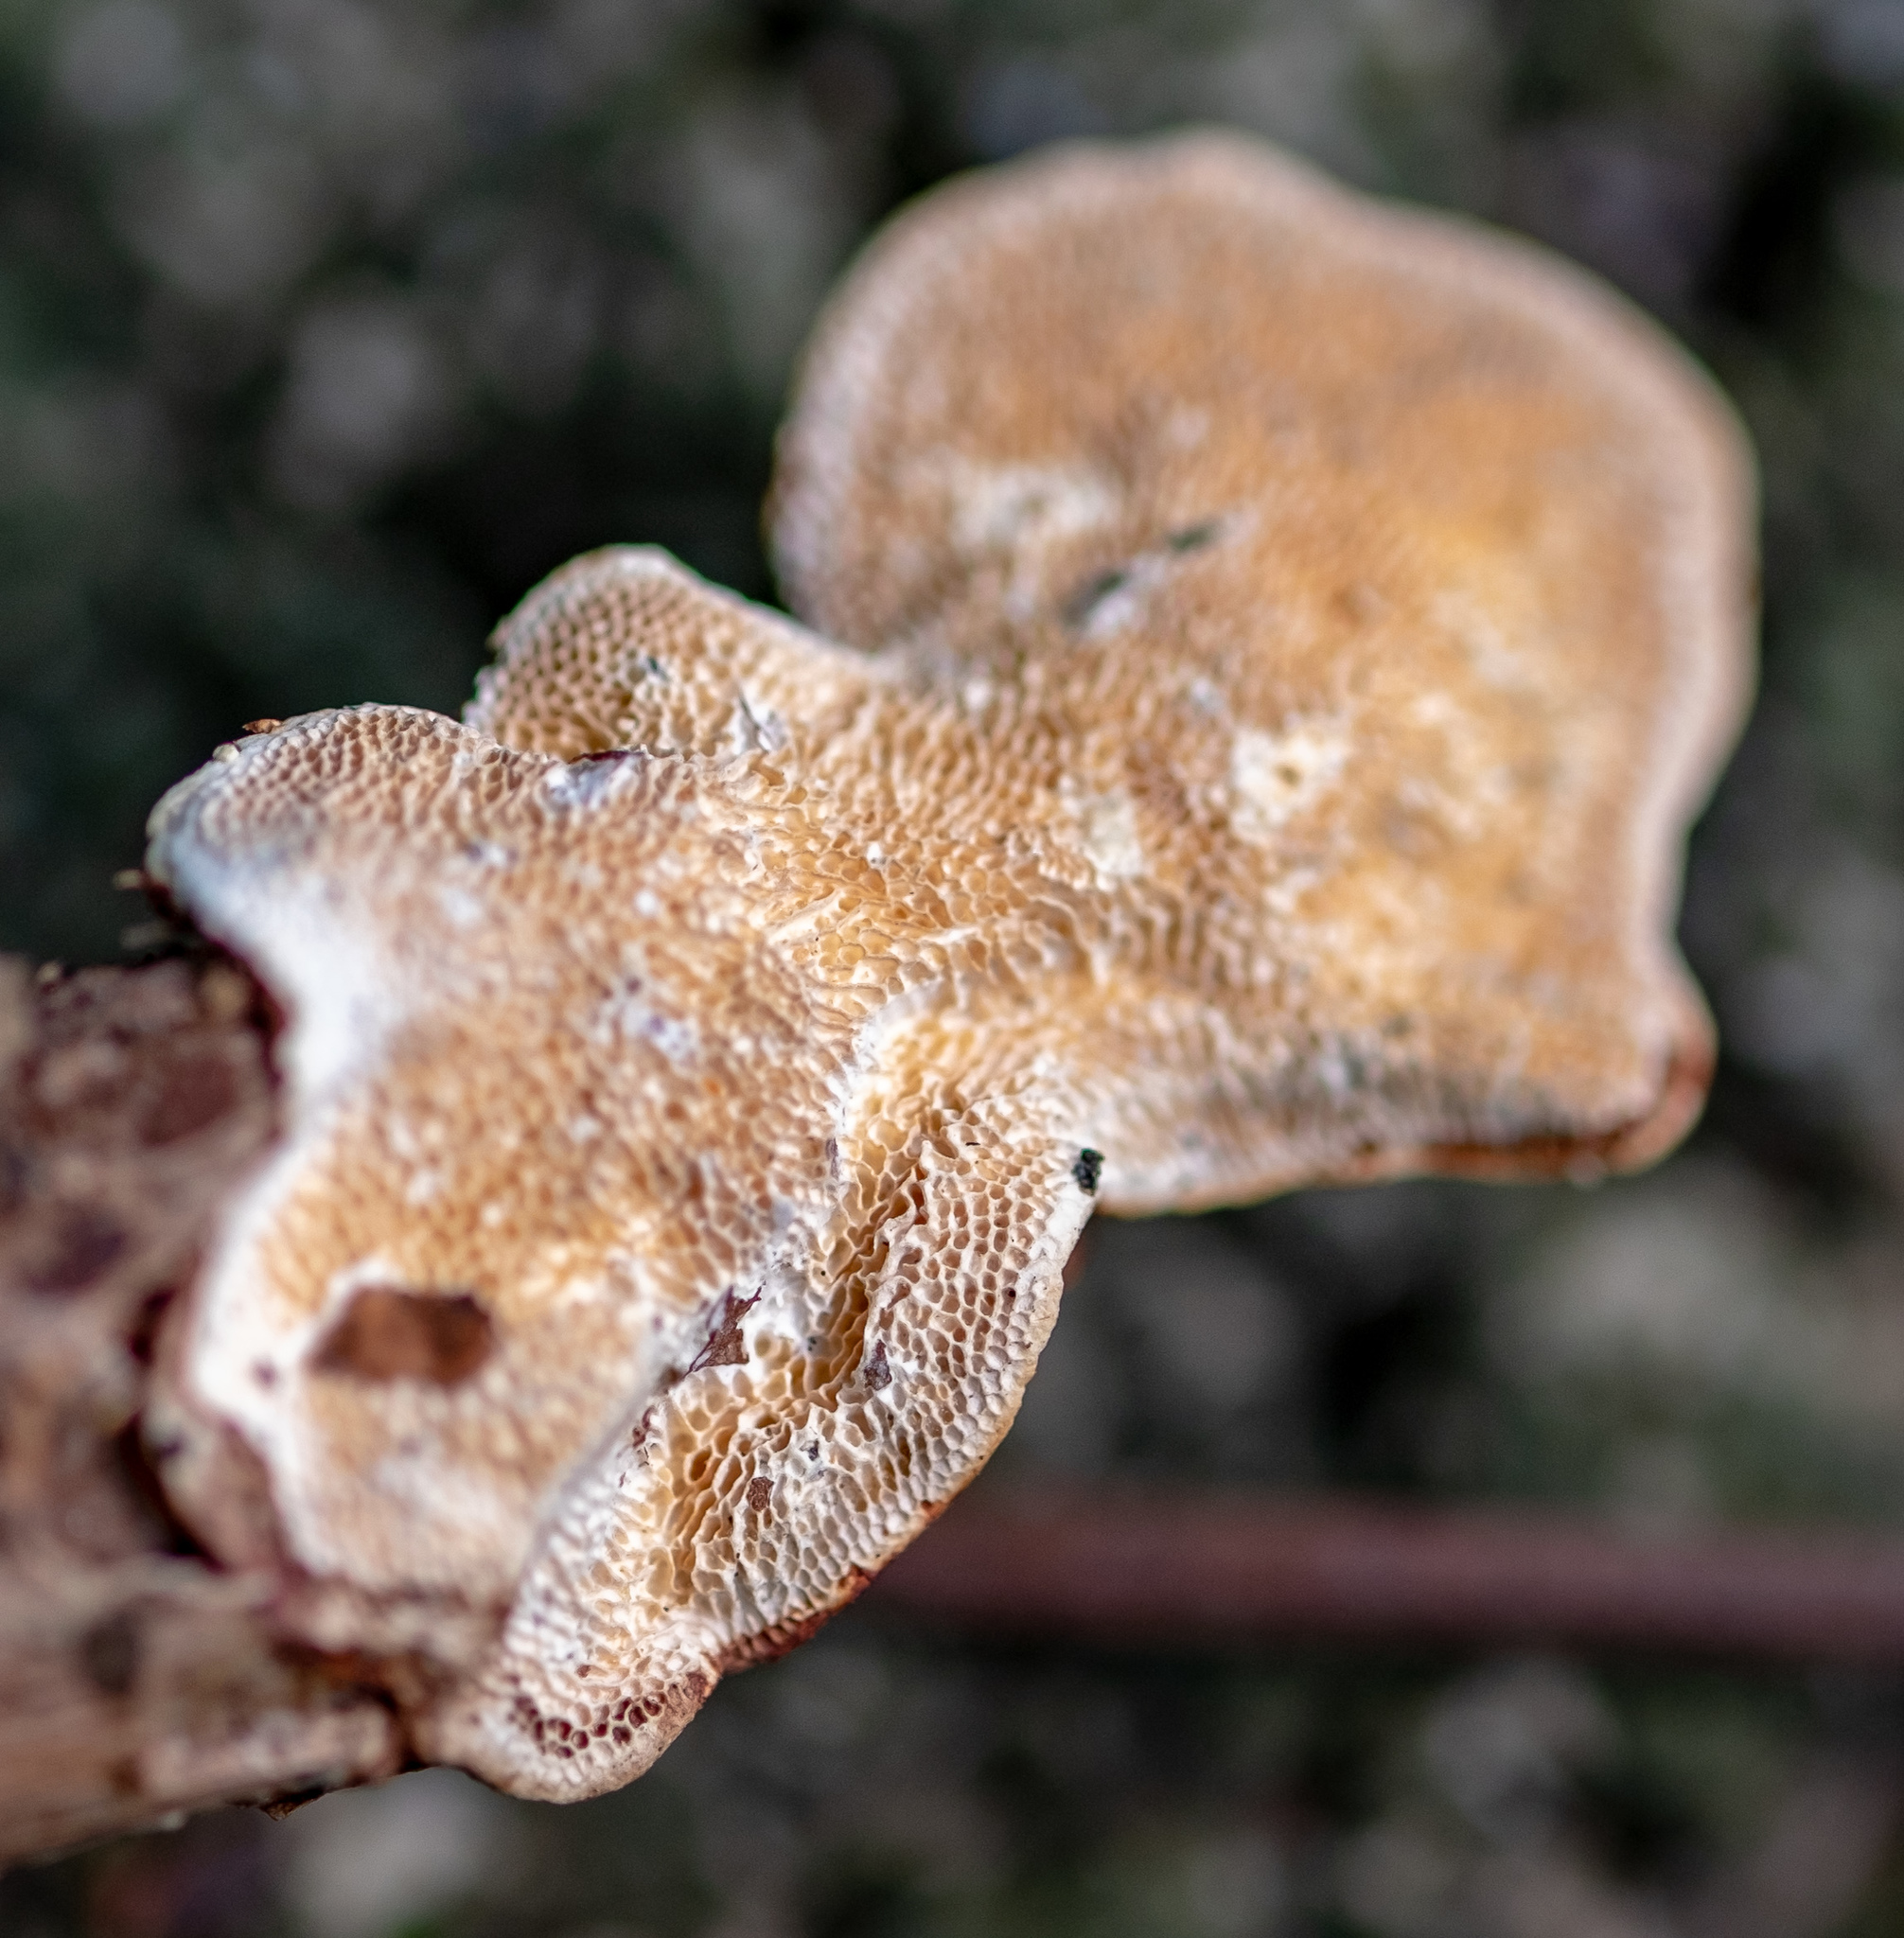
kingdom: Fungi
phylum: Basidiomycota
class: Agaricomycetes
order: Polyporales
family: Polyporaceae
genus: Earliella
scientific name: Earliella scabrosa
